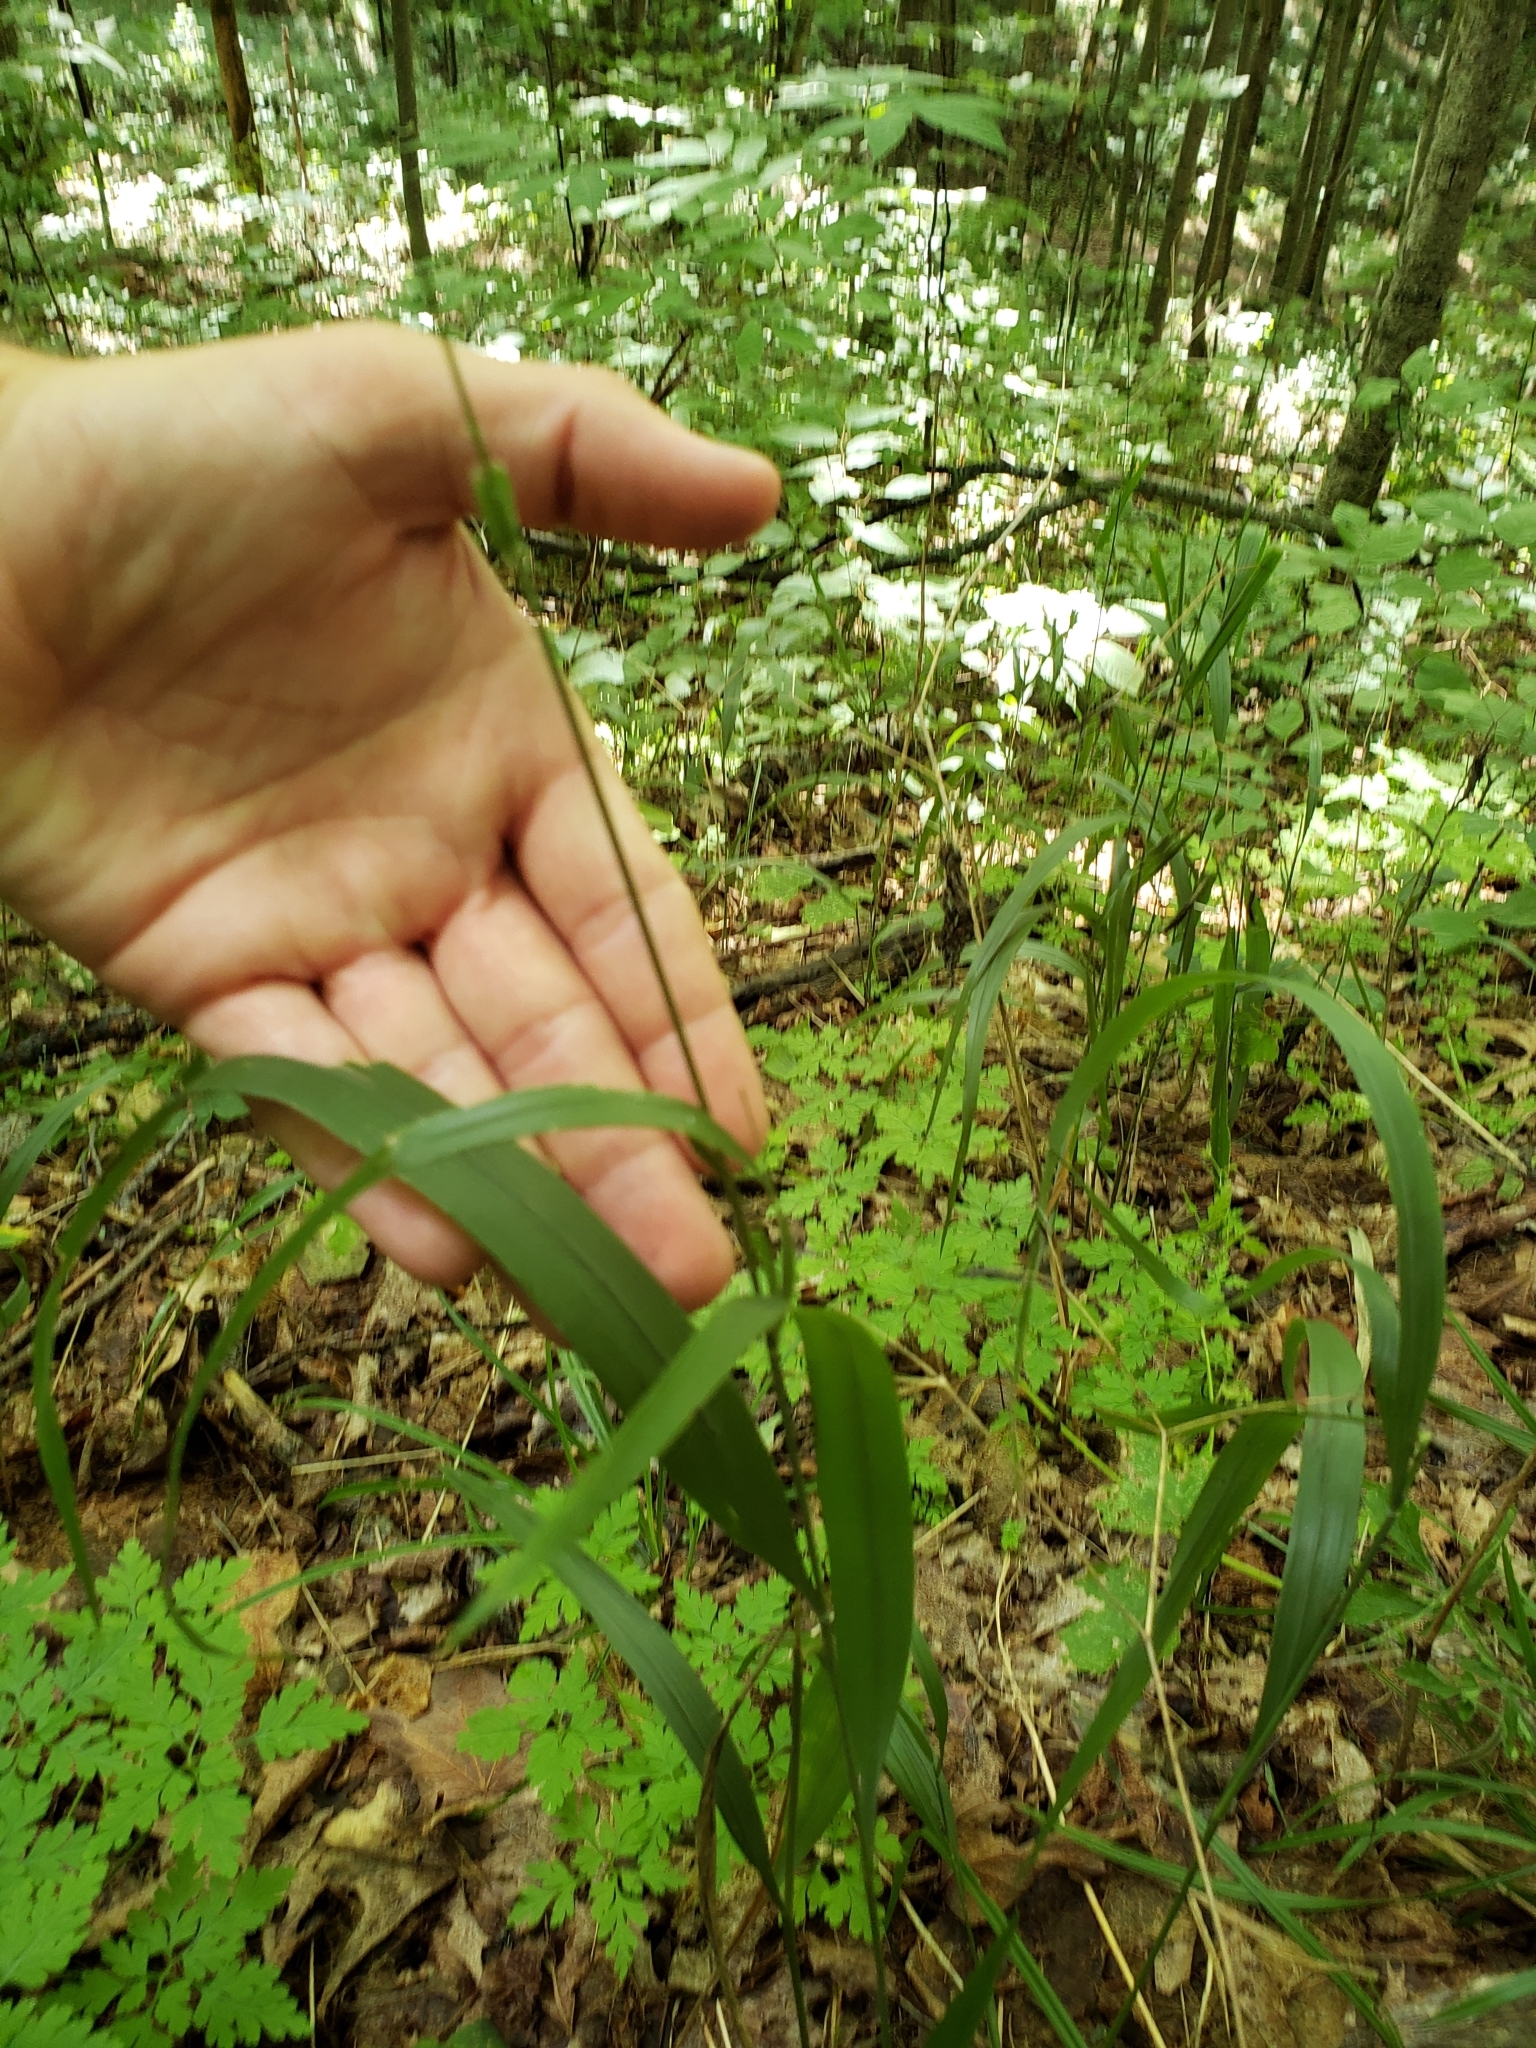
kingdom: Plantae
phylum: Tracheophyta
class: Liliopsida
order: Poales
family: Poaceae
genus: Patis
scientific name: Patis racemosa
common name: Black-fruited mountain rice
